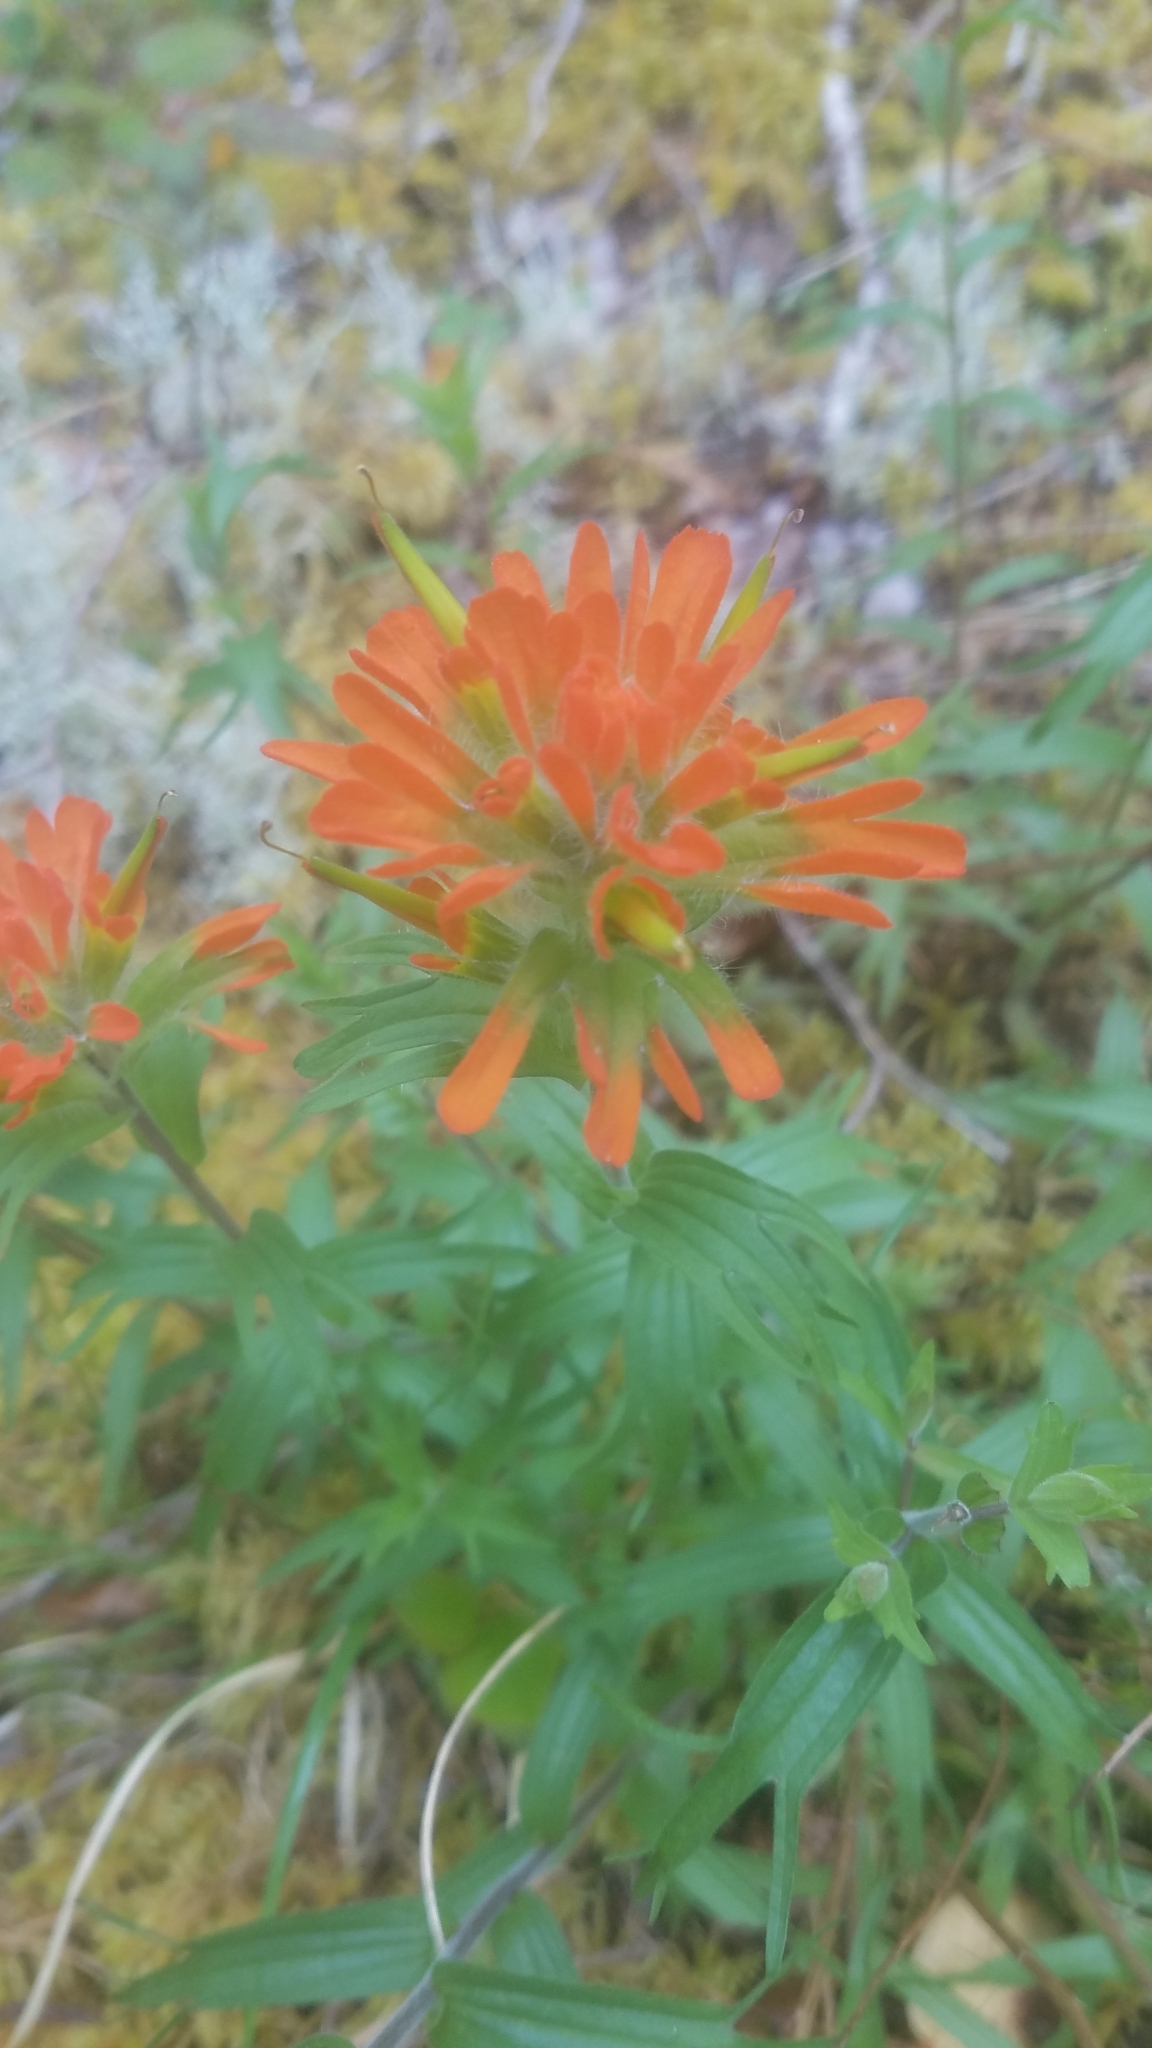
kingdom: Plantae
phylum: Tracheophyta
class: Magnoliopsida
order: Lamiales
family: Orobanchaceae
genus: Castilleja
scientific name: Castilleja hispida
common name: Bristly paintbrush
